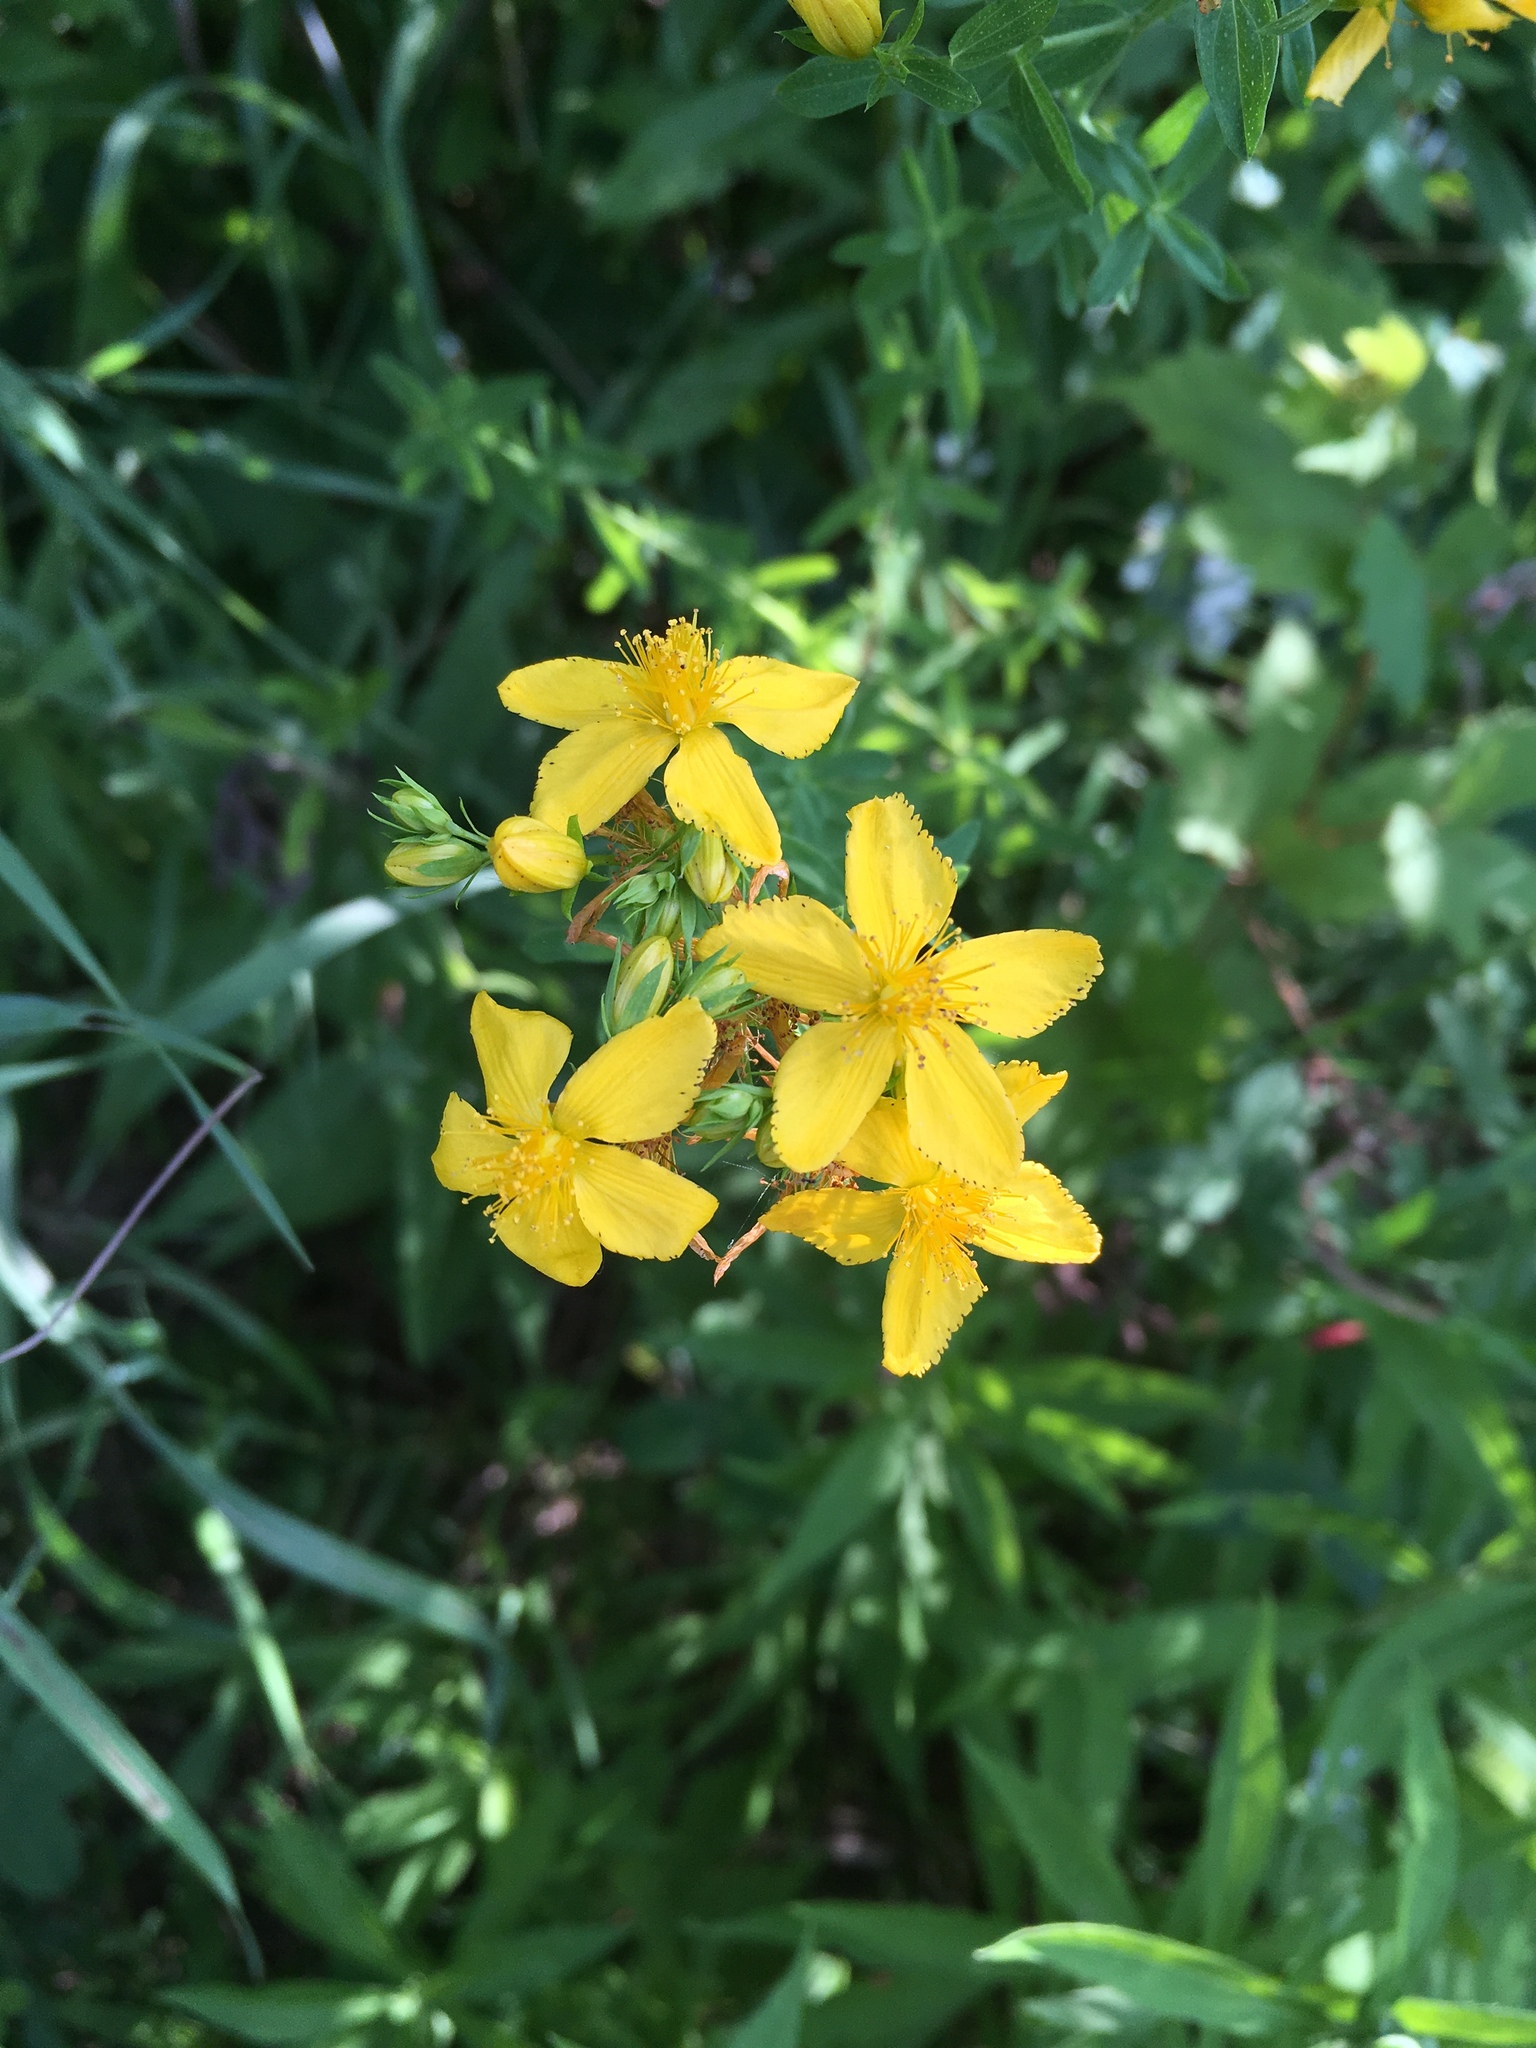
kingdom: Plantae
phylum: Tracheophyta
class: Magnoliopsida
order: Malpighiales
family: Hypericaceae
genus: Hypericum
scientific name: Hypericum perforatum
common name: Common st. johnswort
